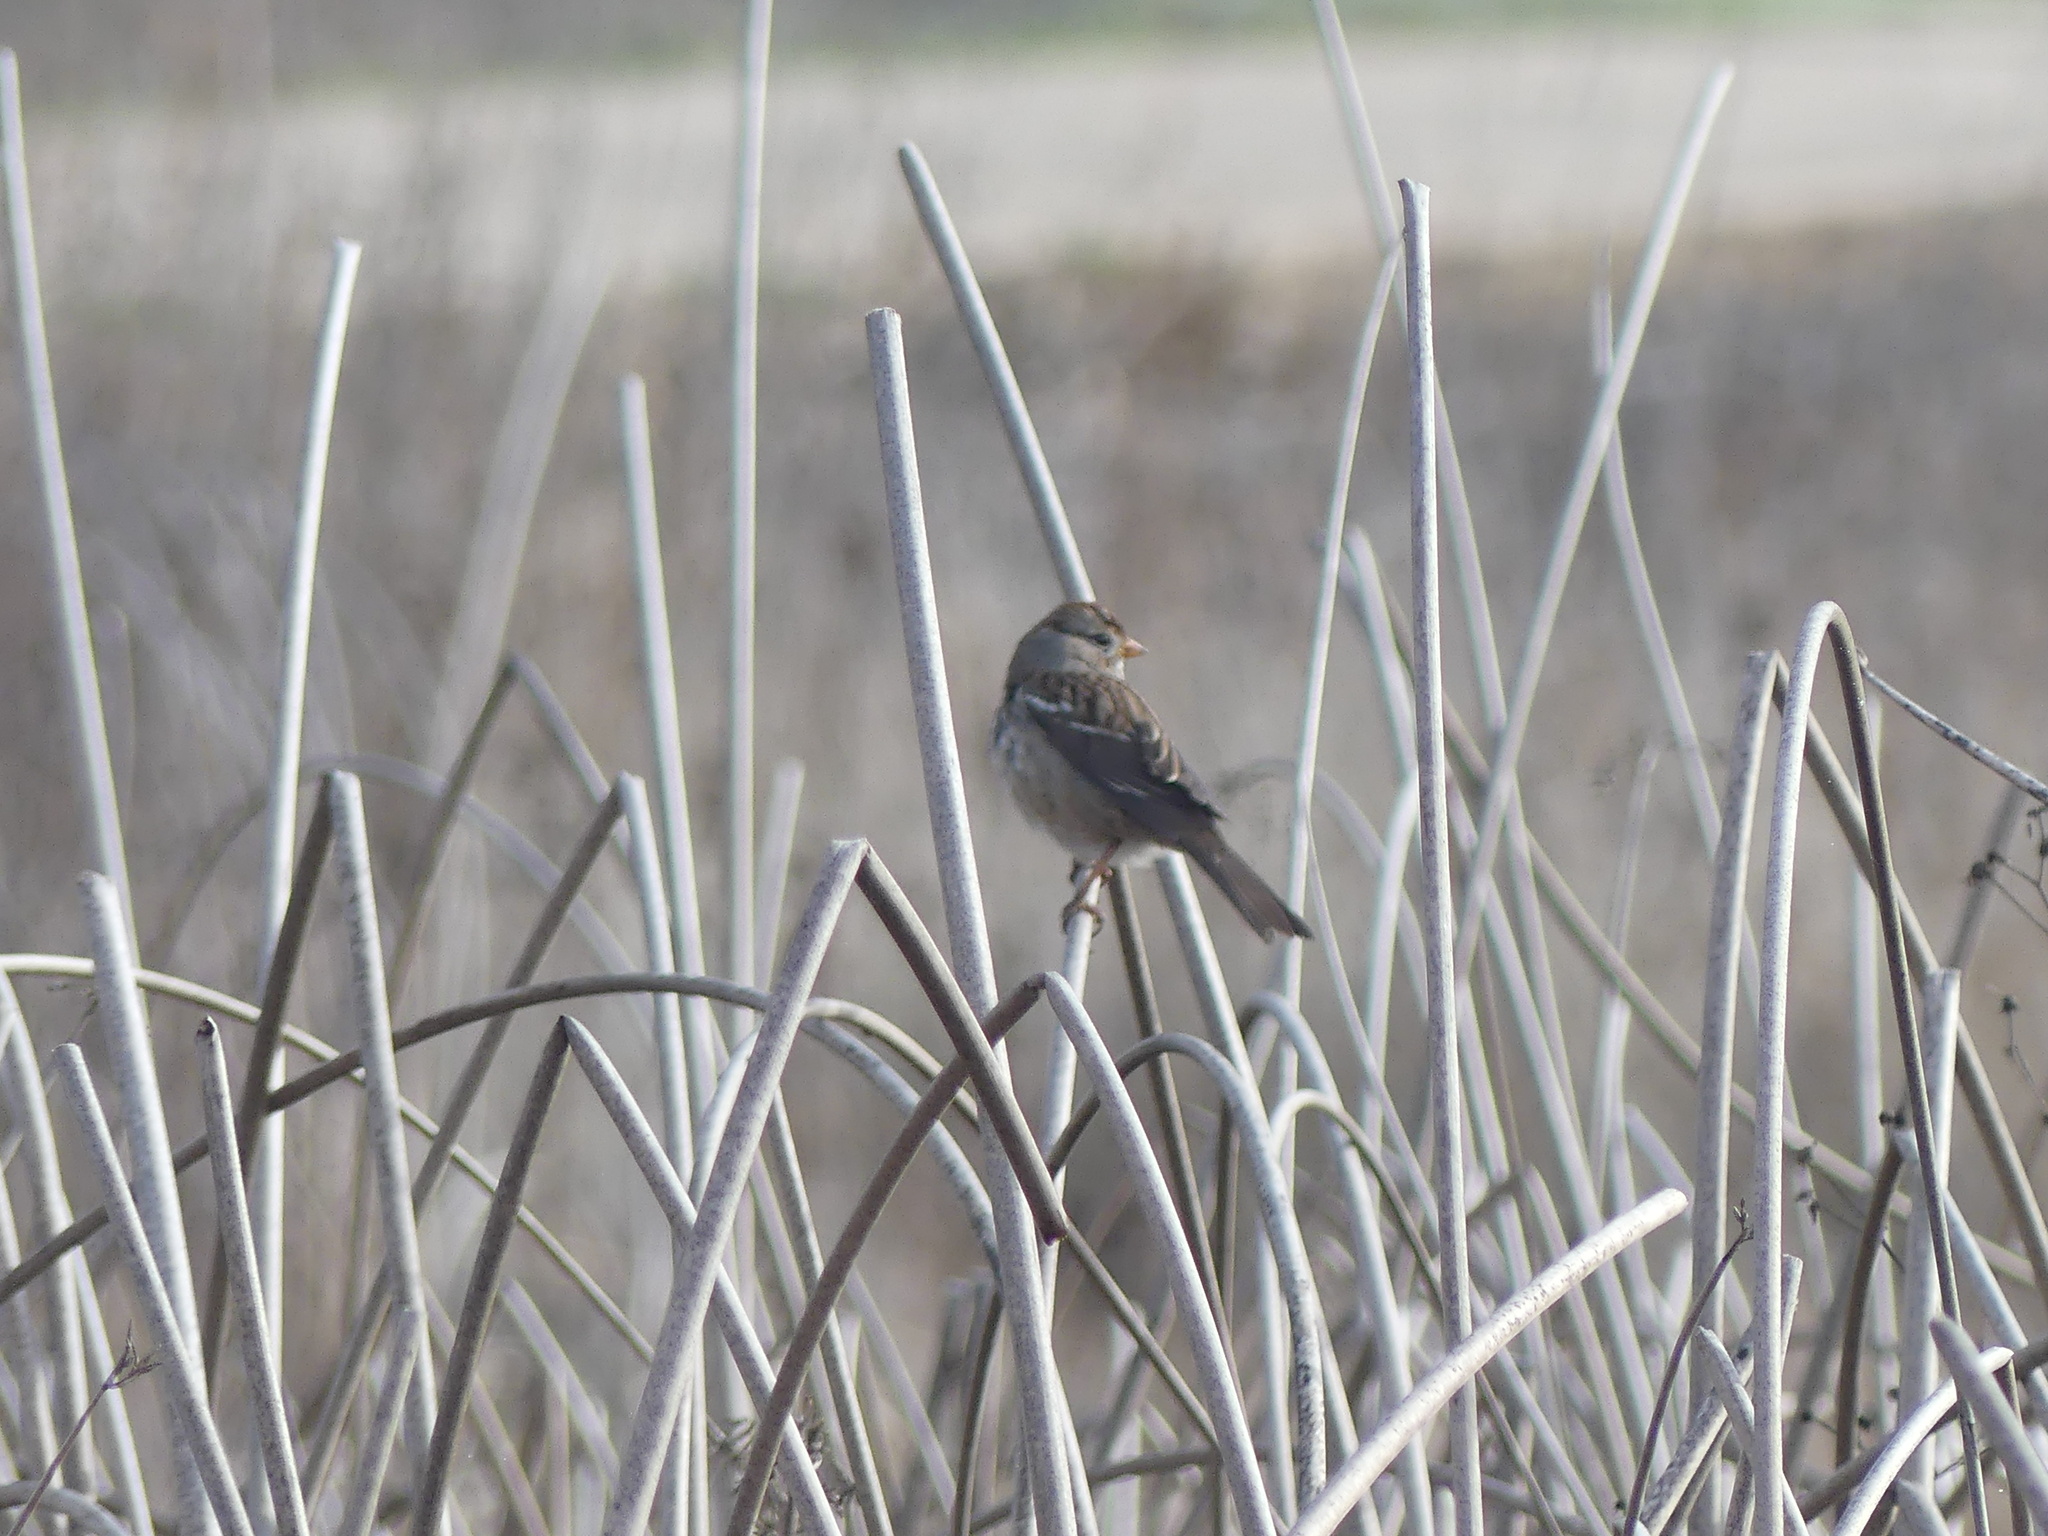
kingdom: Animalia
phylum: Chordata
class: Aves
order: Passeriformes
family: Passerellidae
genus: Zonotrichia
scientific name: Zonotrichia leucophrys
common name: White-crowned sparrow
